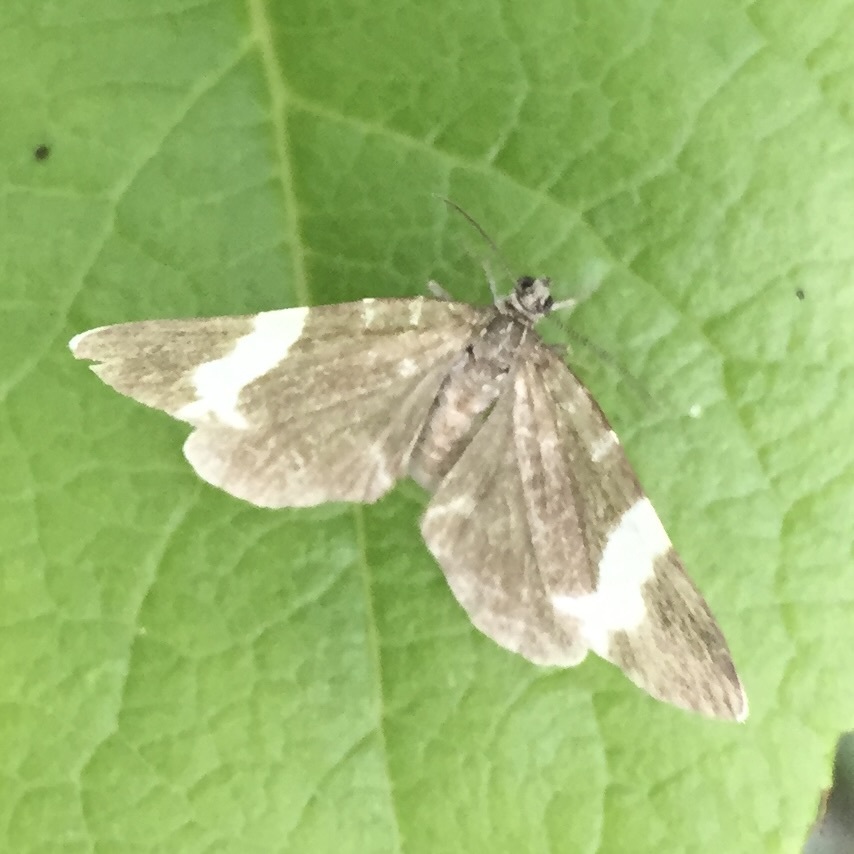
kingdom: Animalia
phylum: Arthropoda
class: Insecta
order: Lepidoptera
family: Geometridae
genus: Trichodezia
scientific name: Trichodezia albovittata
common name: White striped black
